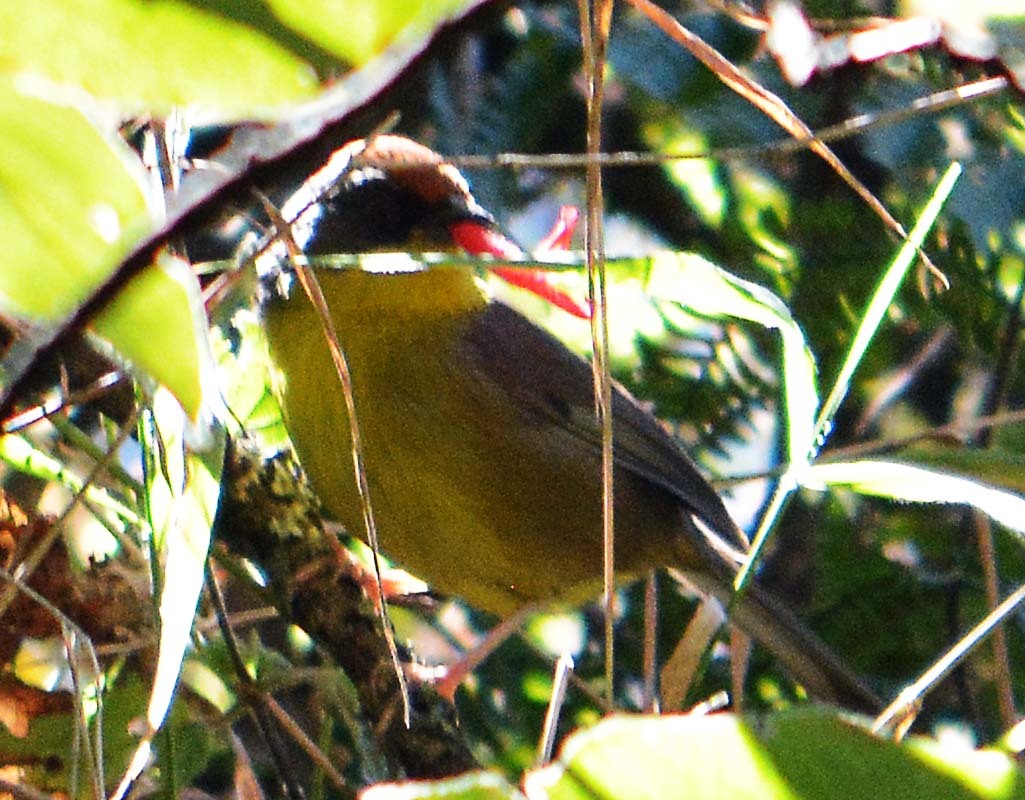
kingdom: Animalia
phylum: Chordata
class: Aves
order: Passeriformes
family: Passerellidae
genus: Atlapetes
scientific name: Atlapetes pileatus
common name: Rufous-capped brush-finch
